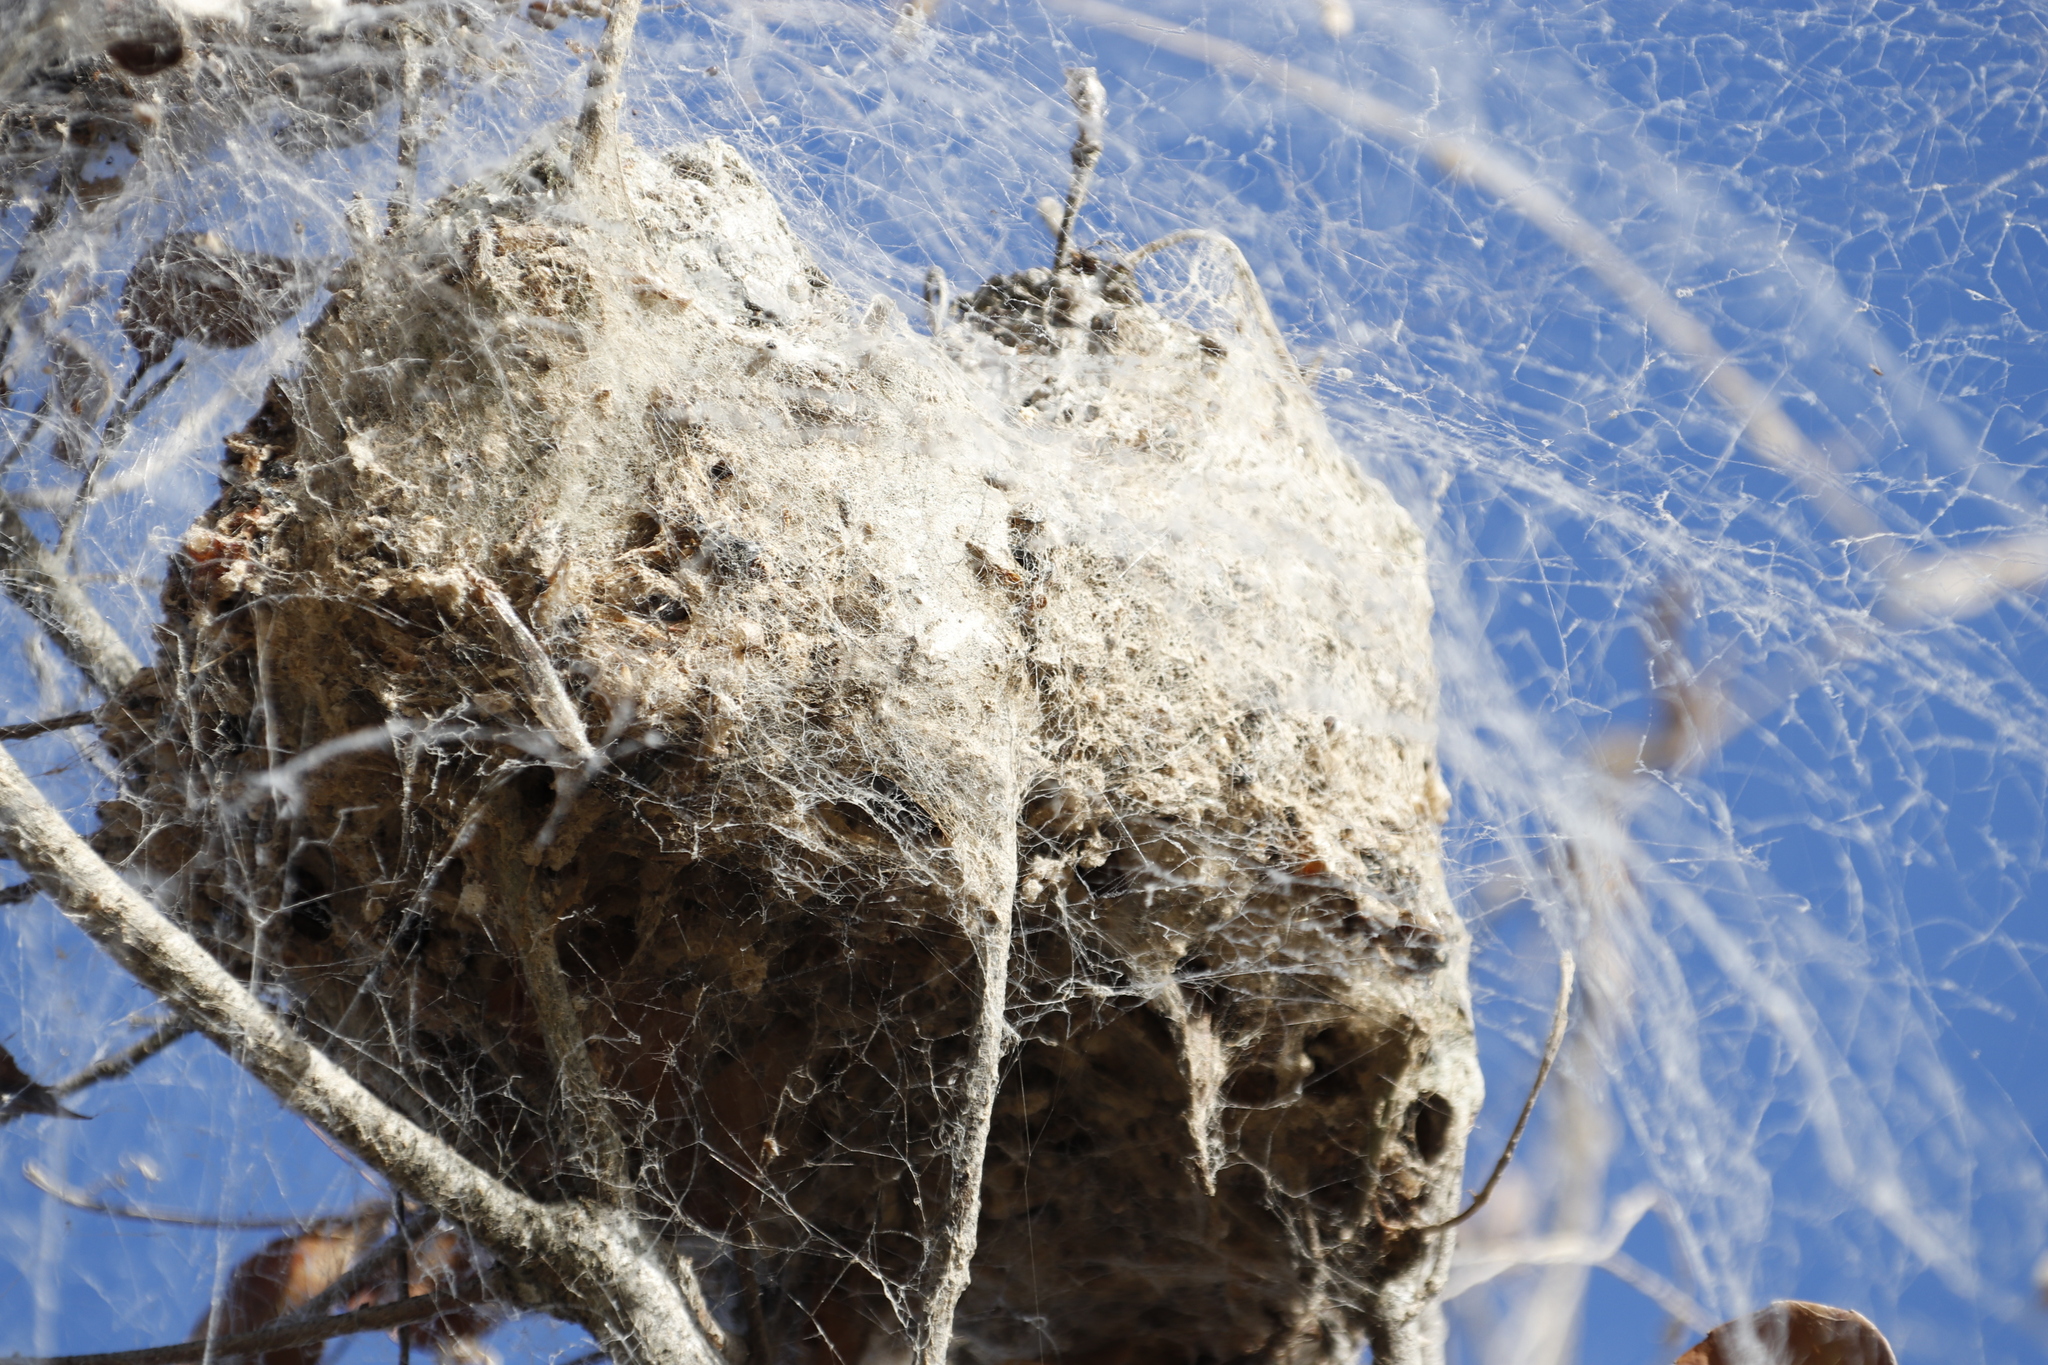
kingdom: Animalia
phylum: Arthropoda
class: Arachnida
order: Araneae
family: Eresidae
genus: Stegodyphus
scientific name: Stegodyphus dumicola
